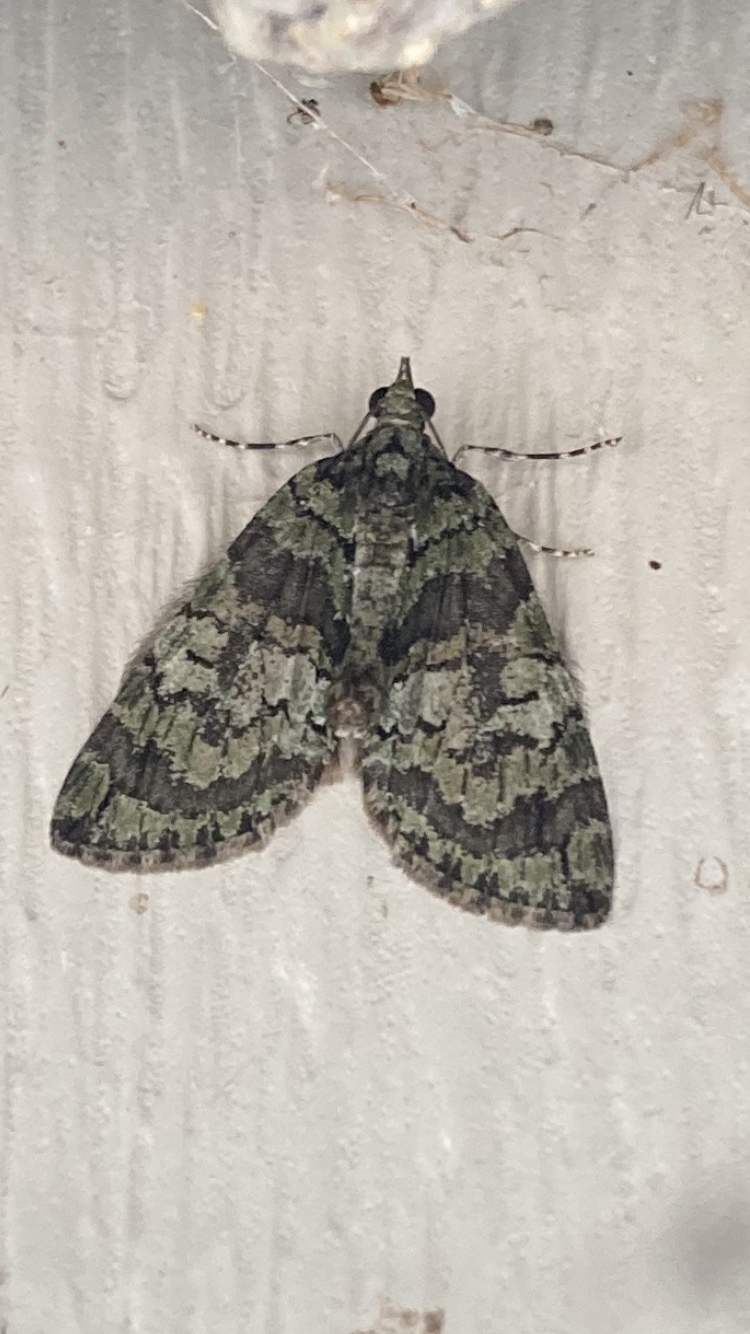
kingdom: Animalia
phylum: Arthropoda
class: Insecta
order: Lepidoptera
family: Geometridae
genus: Hydriomena
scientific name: Hydriomena transfigurata
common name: Transfigured hydriomena
